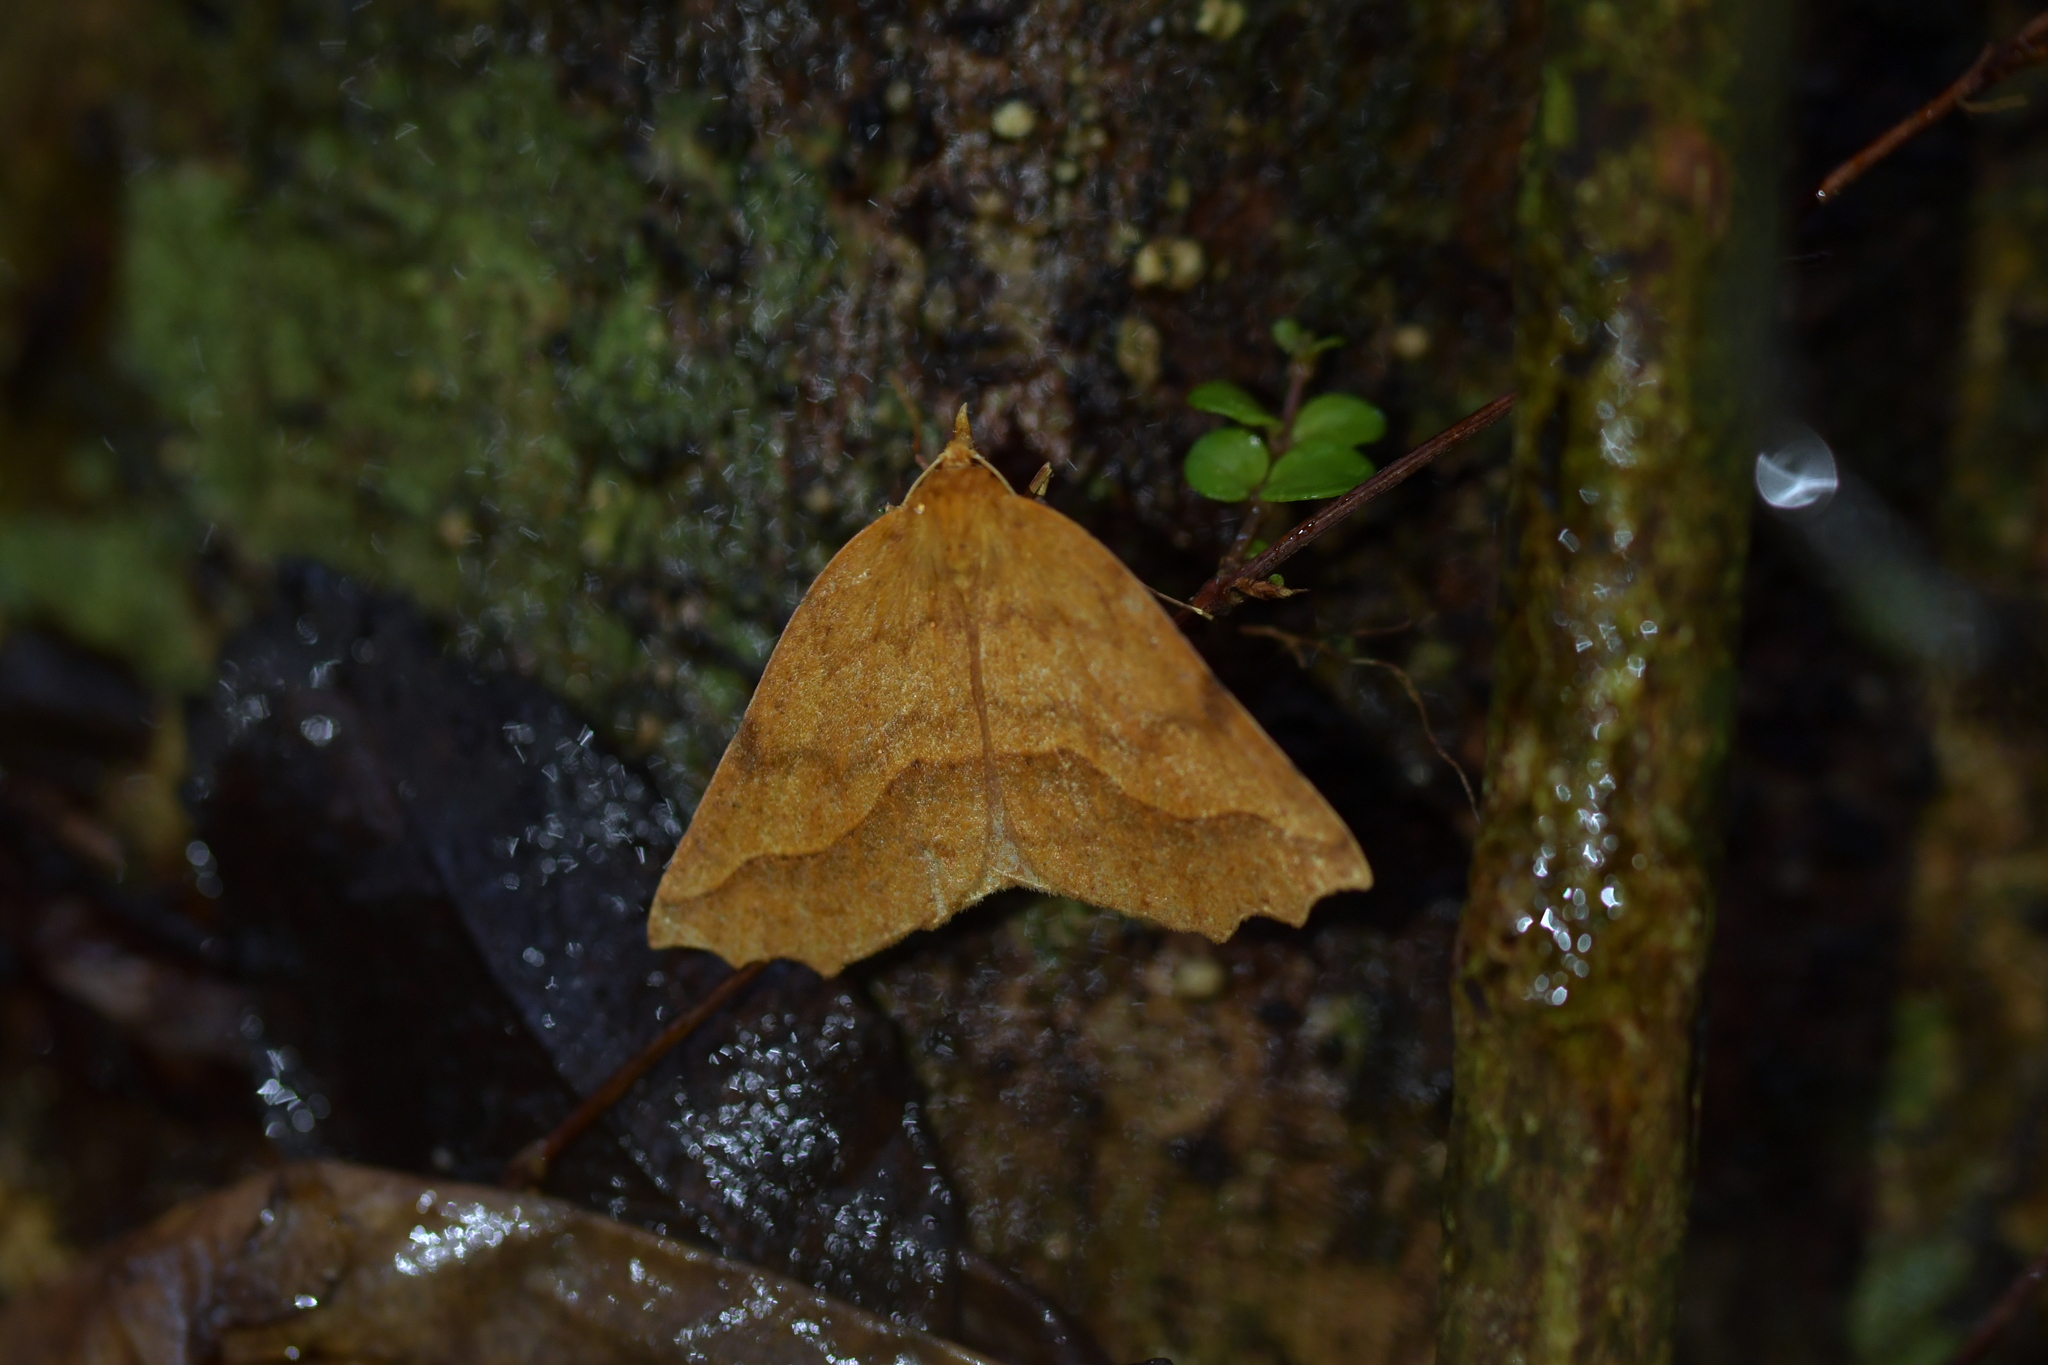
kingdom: Animalia
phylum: Arthropoda
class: Insecta
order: Lepidoptera
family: Geometridae
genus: Ischalis
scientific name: Ischalis variabilis
